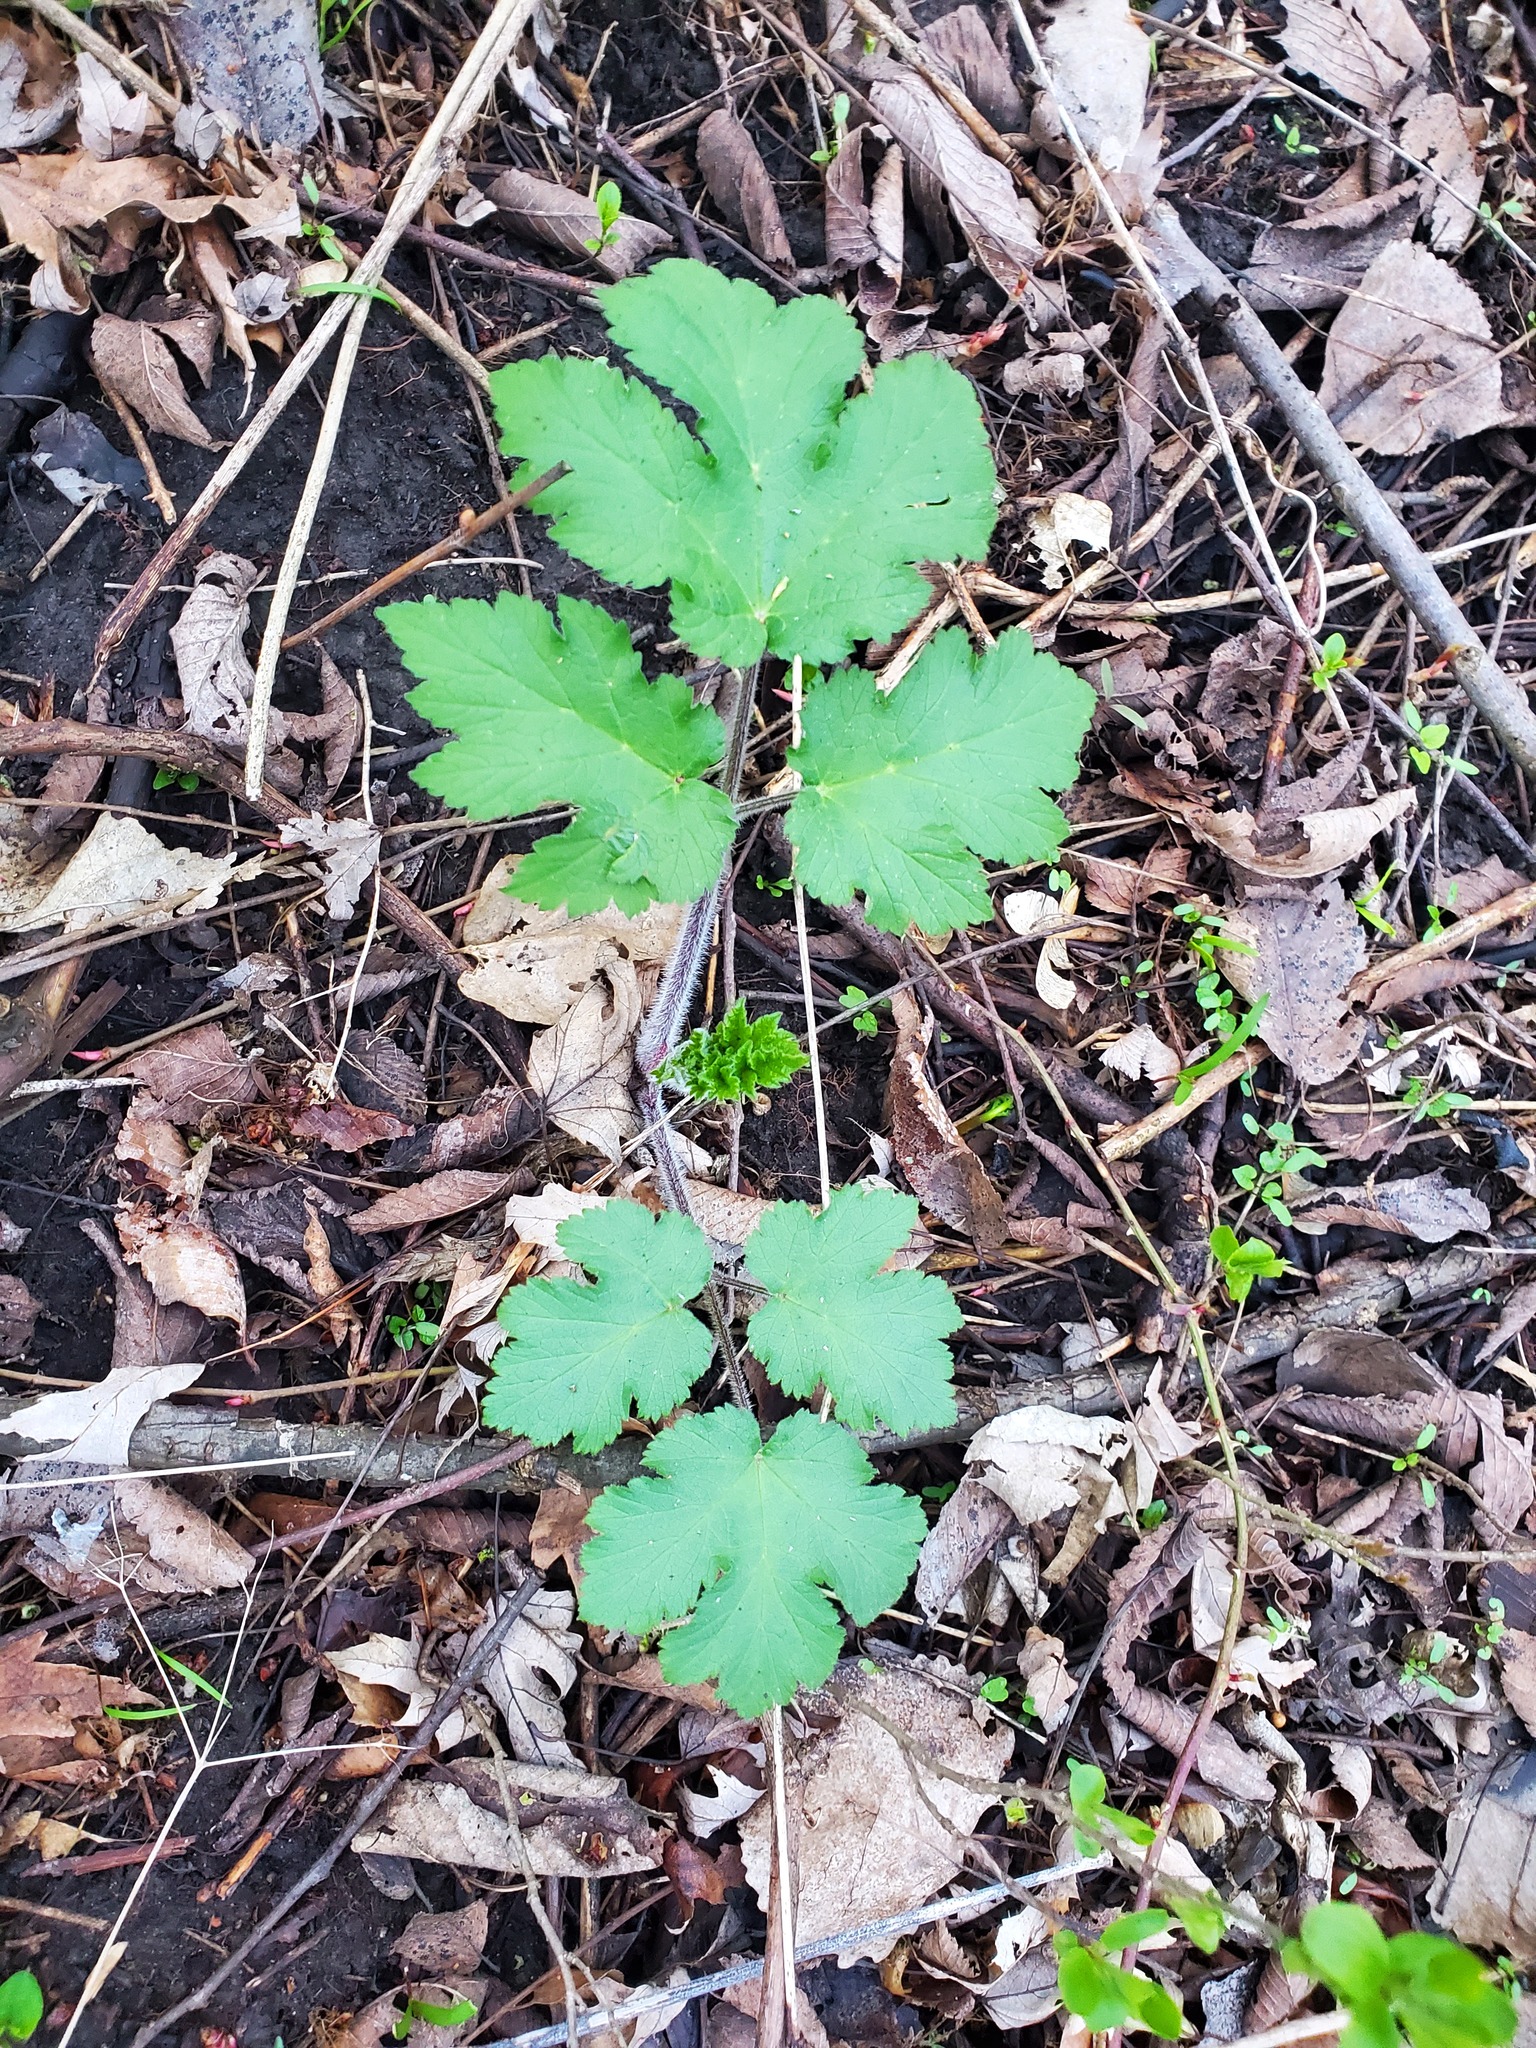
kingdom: Plantae
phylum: Tracheophyta
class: Magnoliopsida
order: Apiales
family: Apiaceae
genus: Heracleum
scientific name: Heracleum maximum
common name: American cow parsnip
